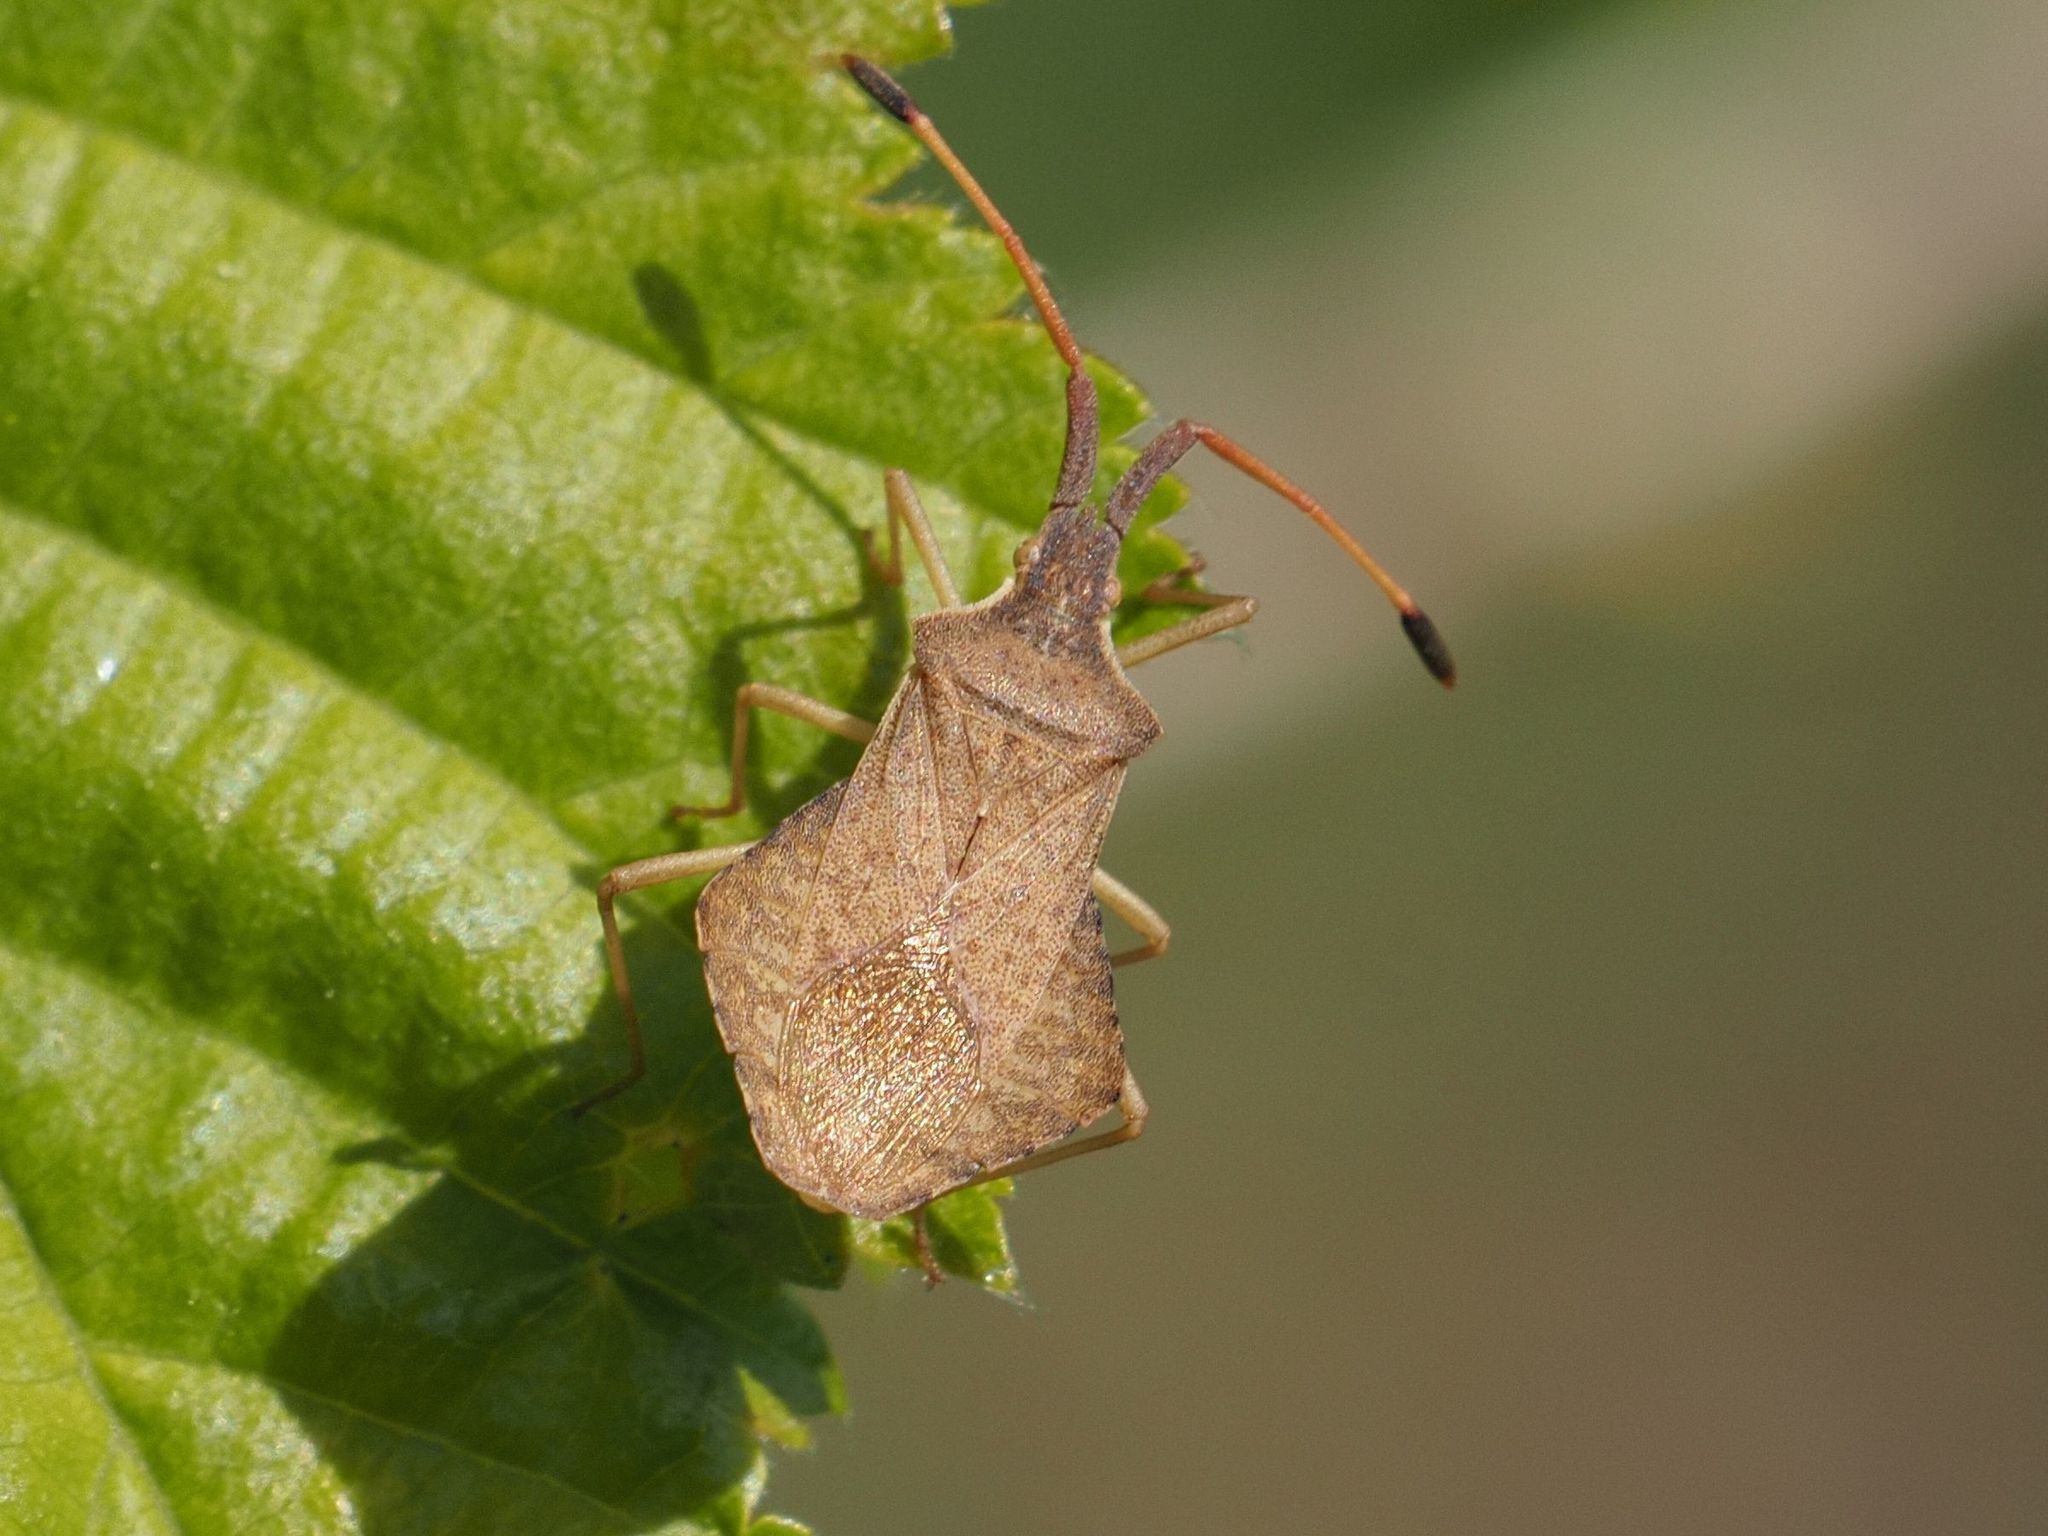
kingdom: Animalia
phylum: Arthropoda
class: Insecta
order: Hemiptera
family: Coreidae
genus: Syromastus
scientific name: Syromastus rhombeus
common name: Rhombic leatherbug
